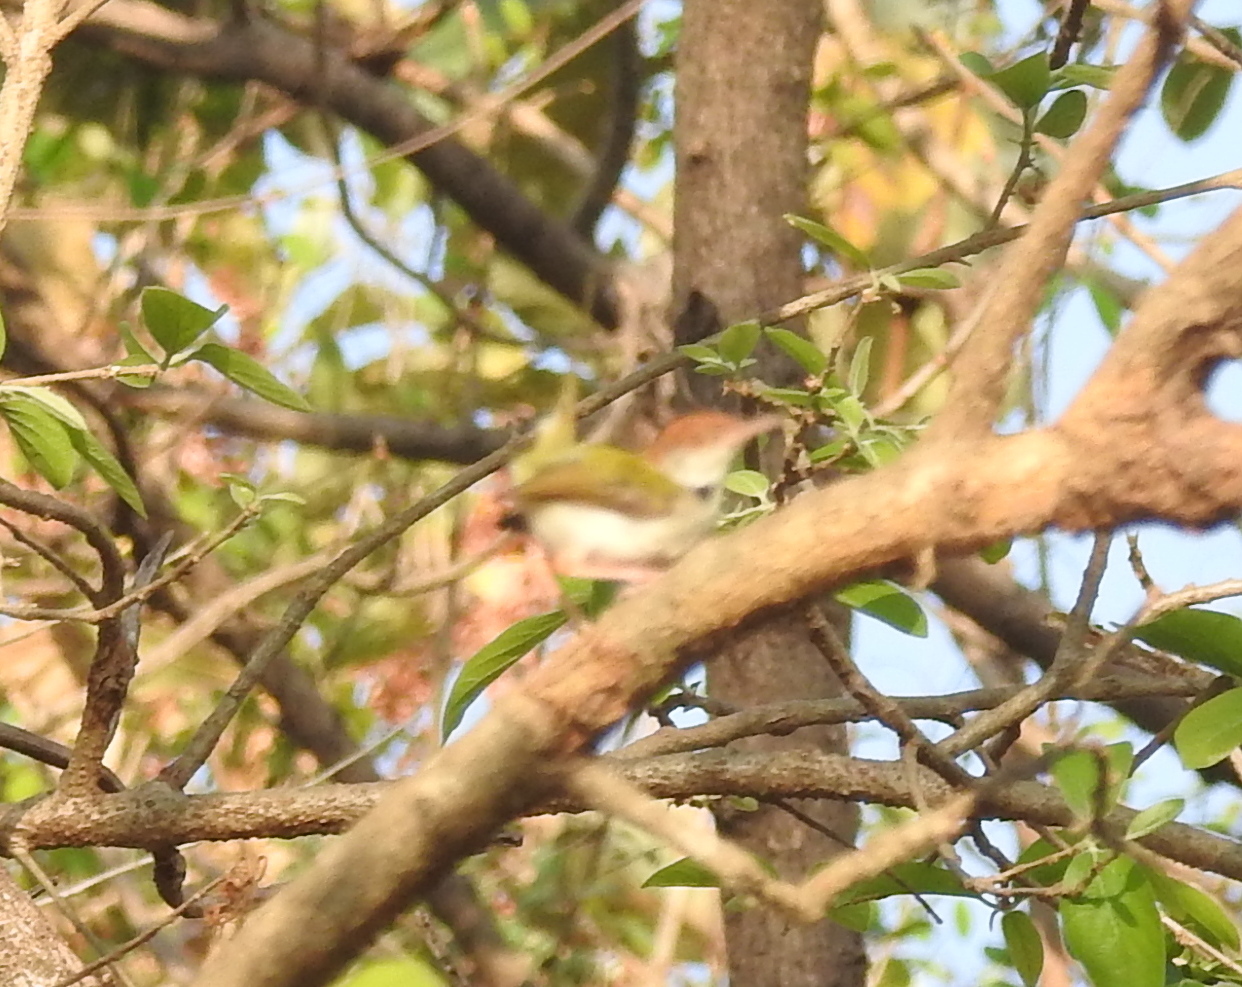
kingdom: Animalia
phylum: Chordata
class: Aves
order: Passeriformes
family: Cisticolidae
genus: Orthotomus
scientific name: Orthotomus sutorius
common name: Common tailorbird
